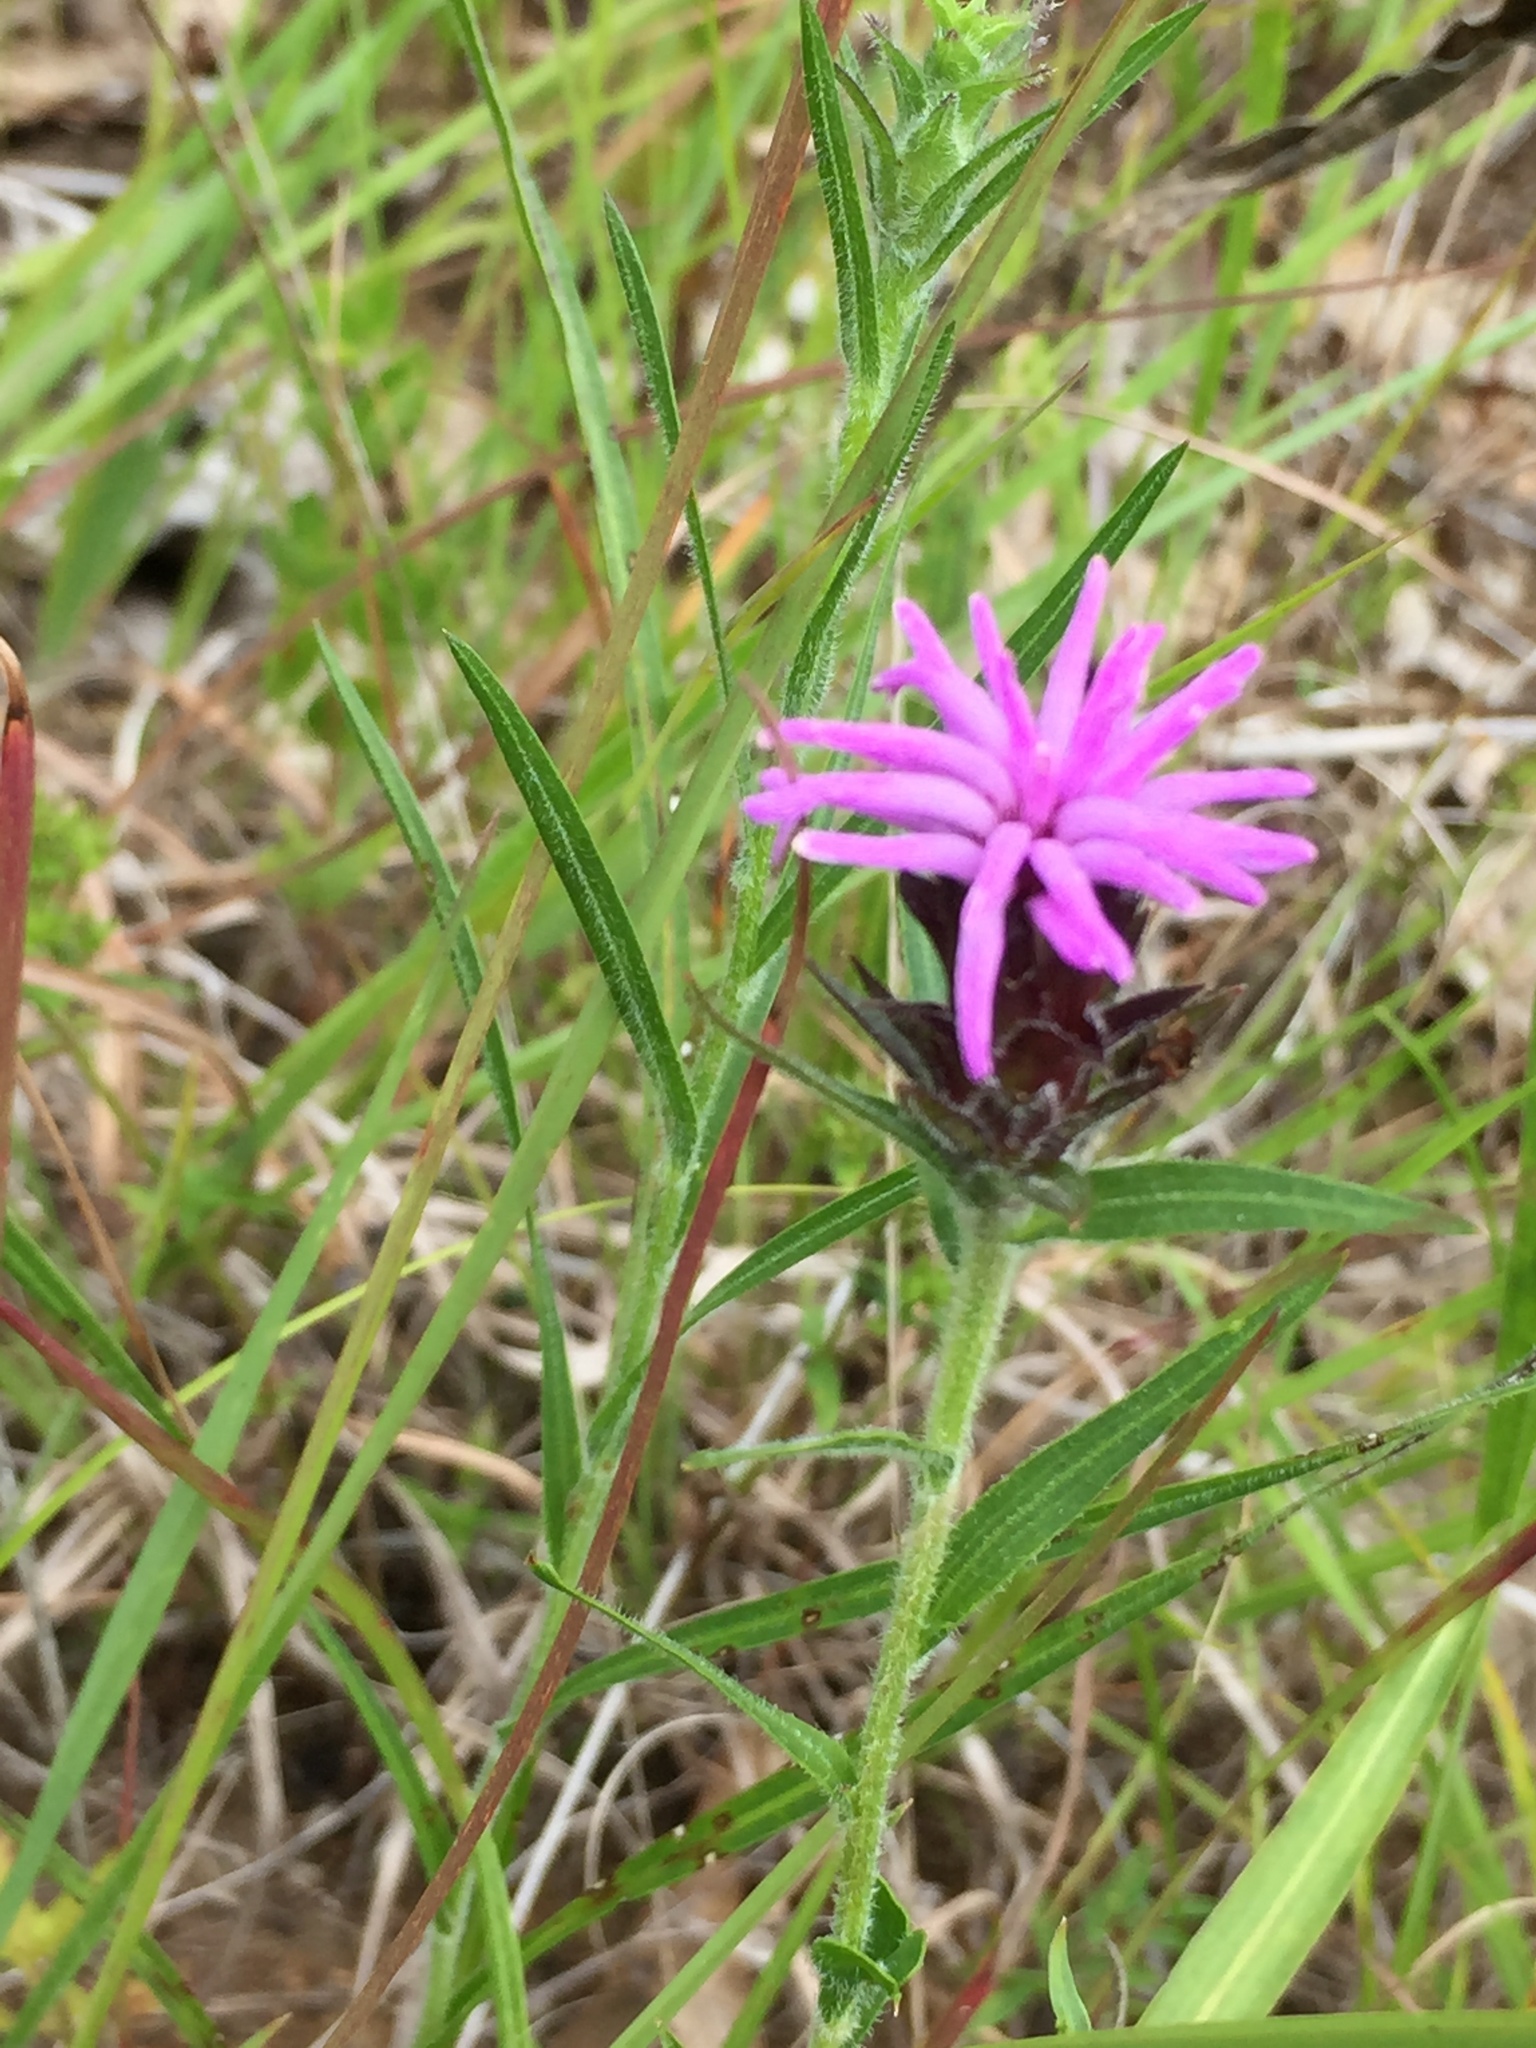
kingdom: Plantae
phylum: Tracheophyta
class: Magnoliopsida
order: Asterales
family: Asteraceae
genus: Liatris
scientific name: Liatris squarrosa
